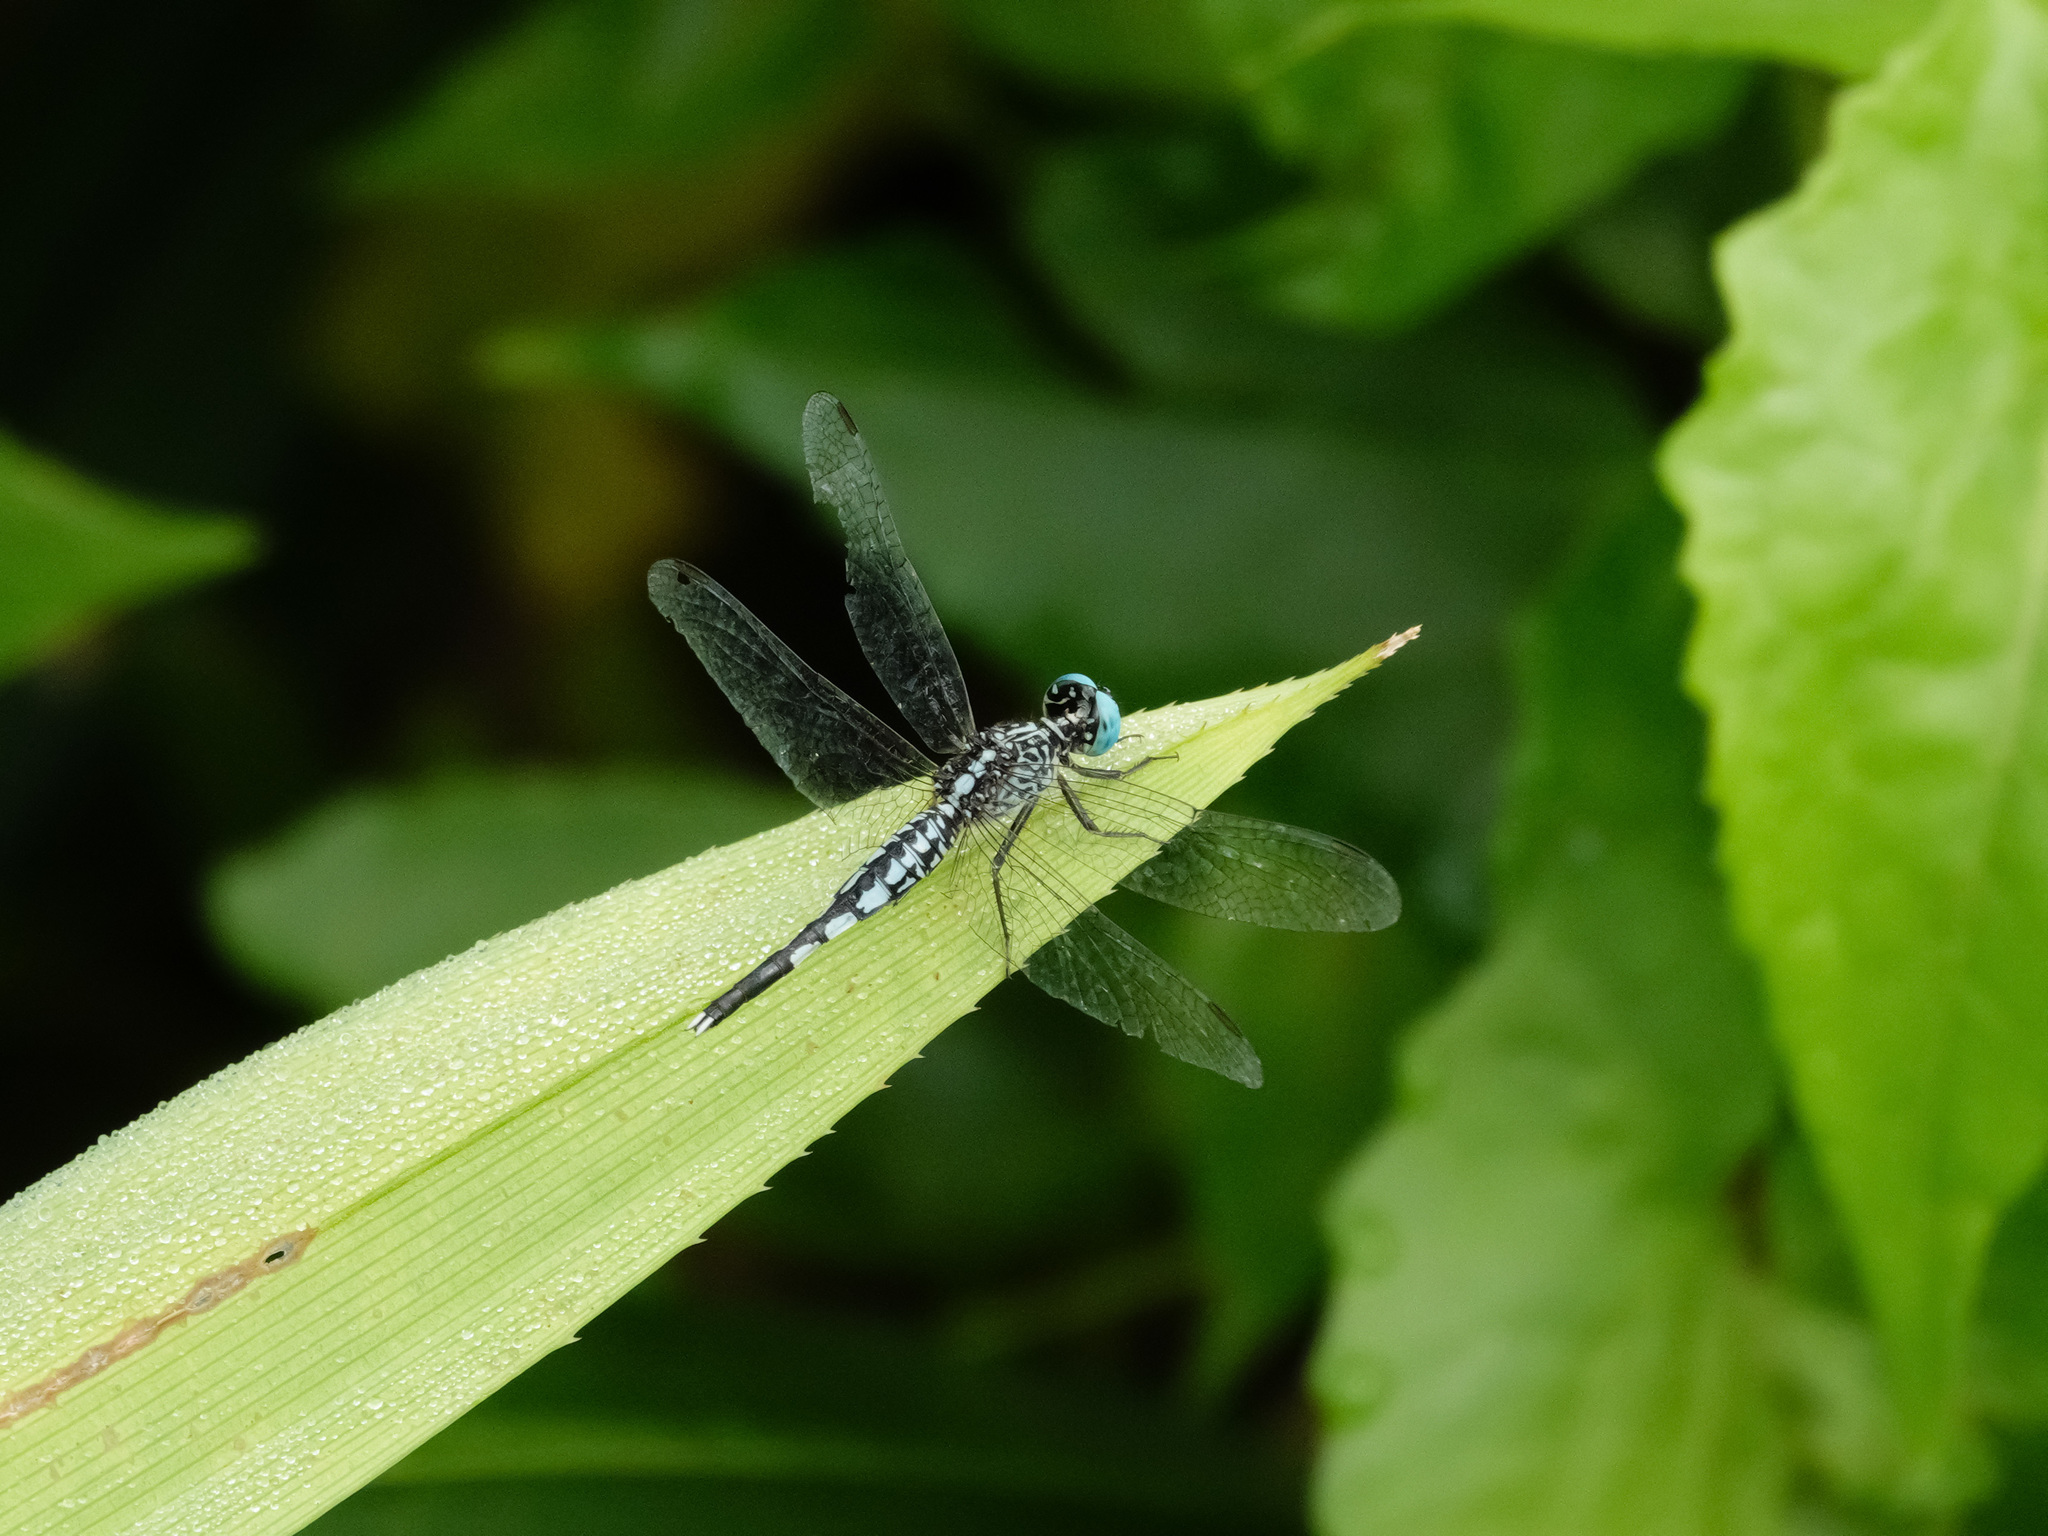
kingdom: Animalia
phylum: Arthropoda
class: Insecta
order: Odonata
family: Libellulidae
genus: Acisoma
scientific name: Acisoma panorpoides
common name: Asian pintail
